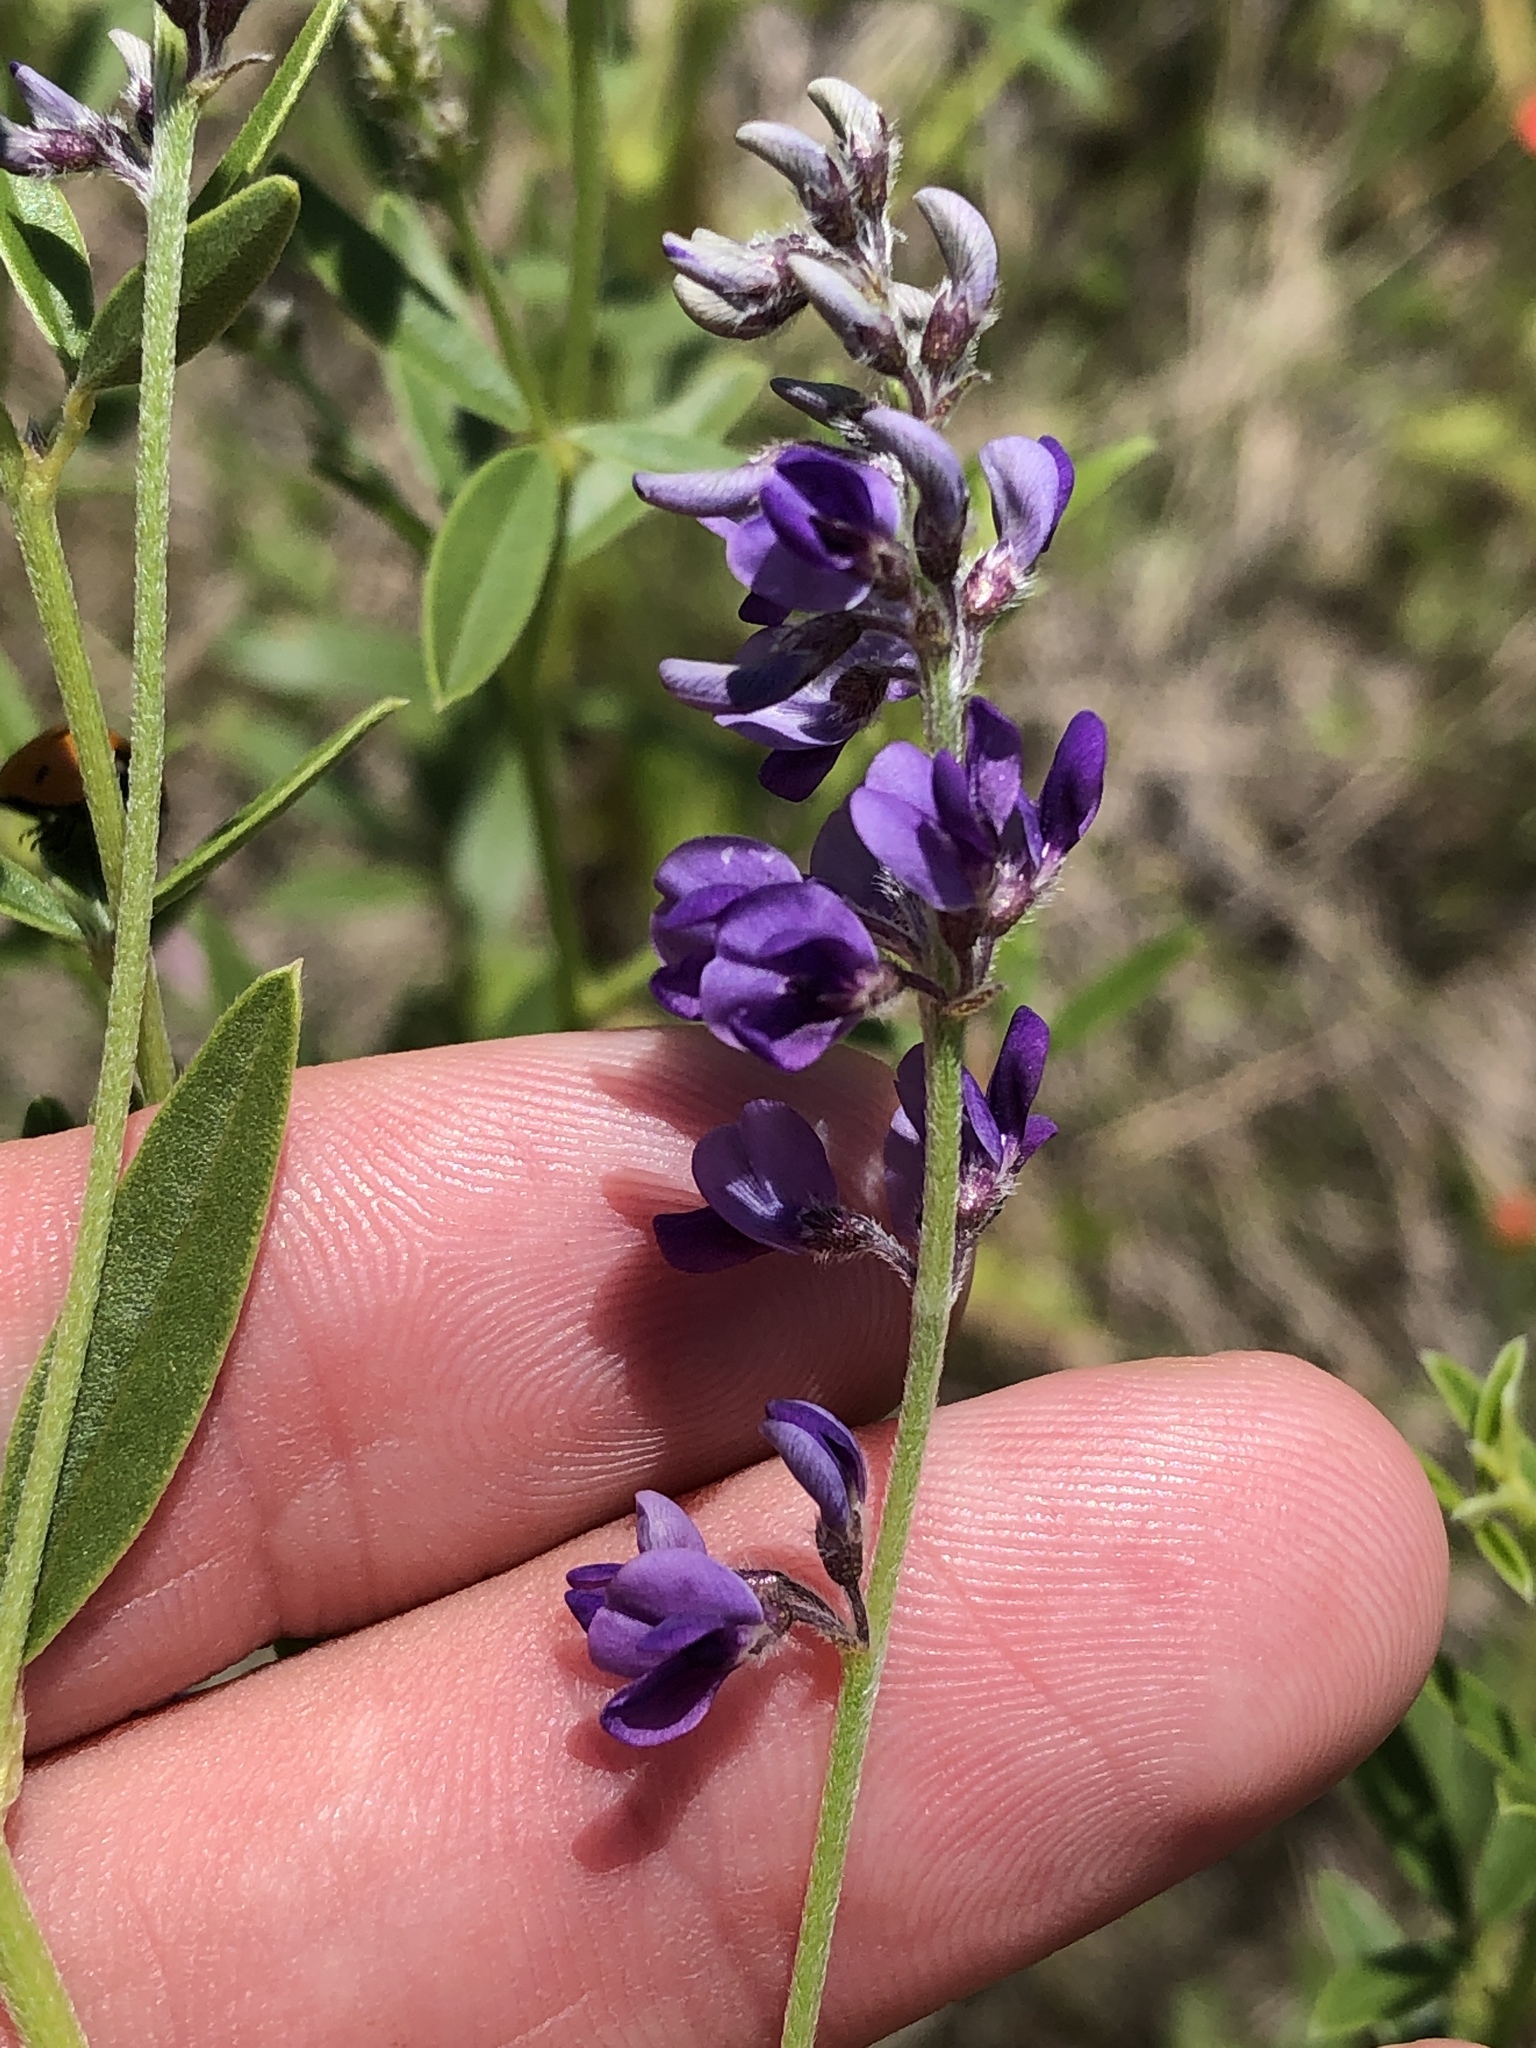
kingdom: Plantae
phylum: Tracheophyta
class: Magnoliopsida
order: Fabales
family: Fabaceae
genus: Pediomelum
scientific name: Pediomelum tenuiflorum
